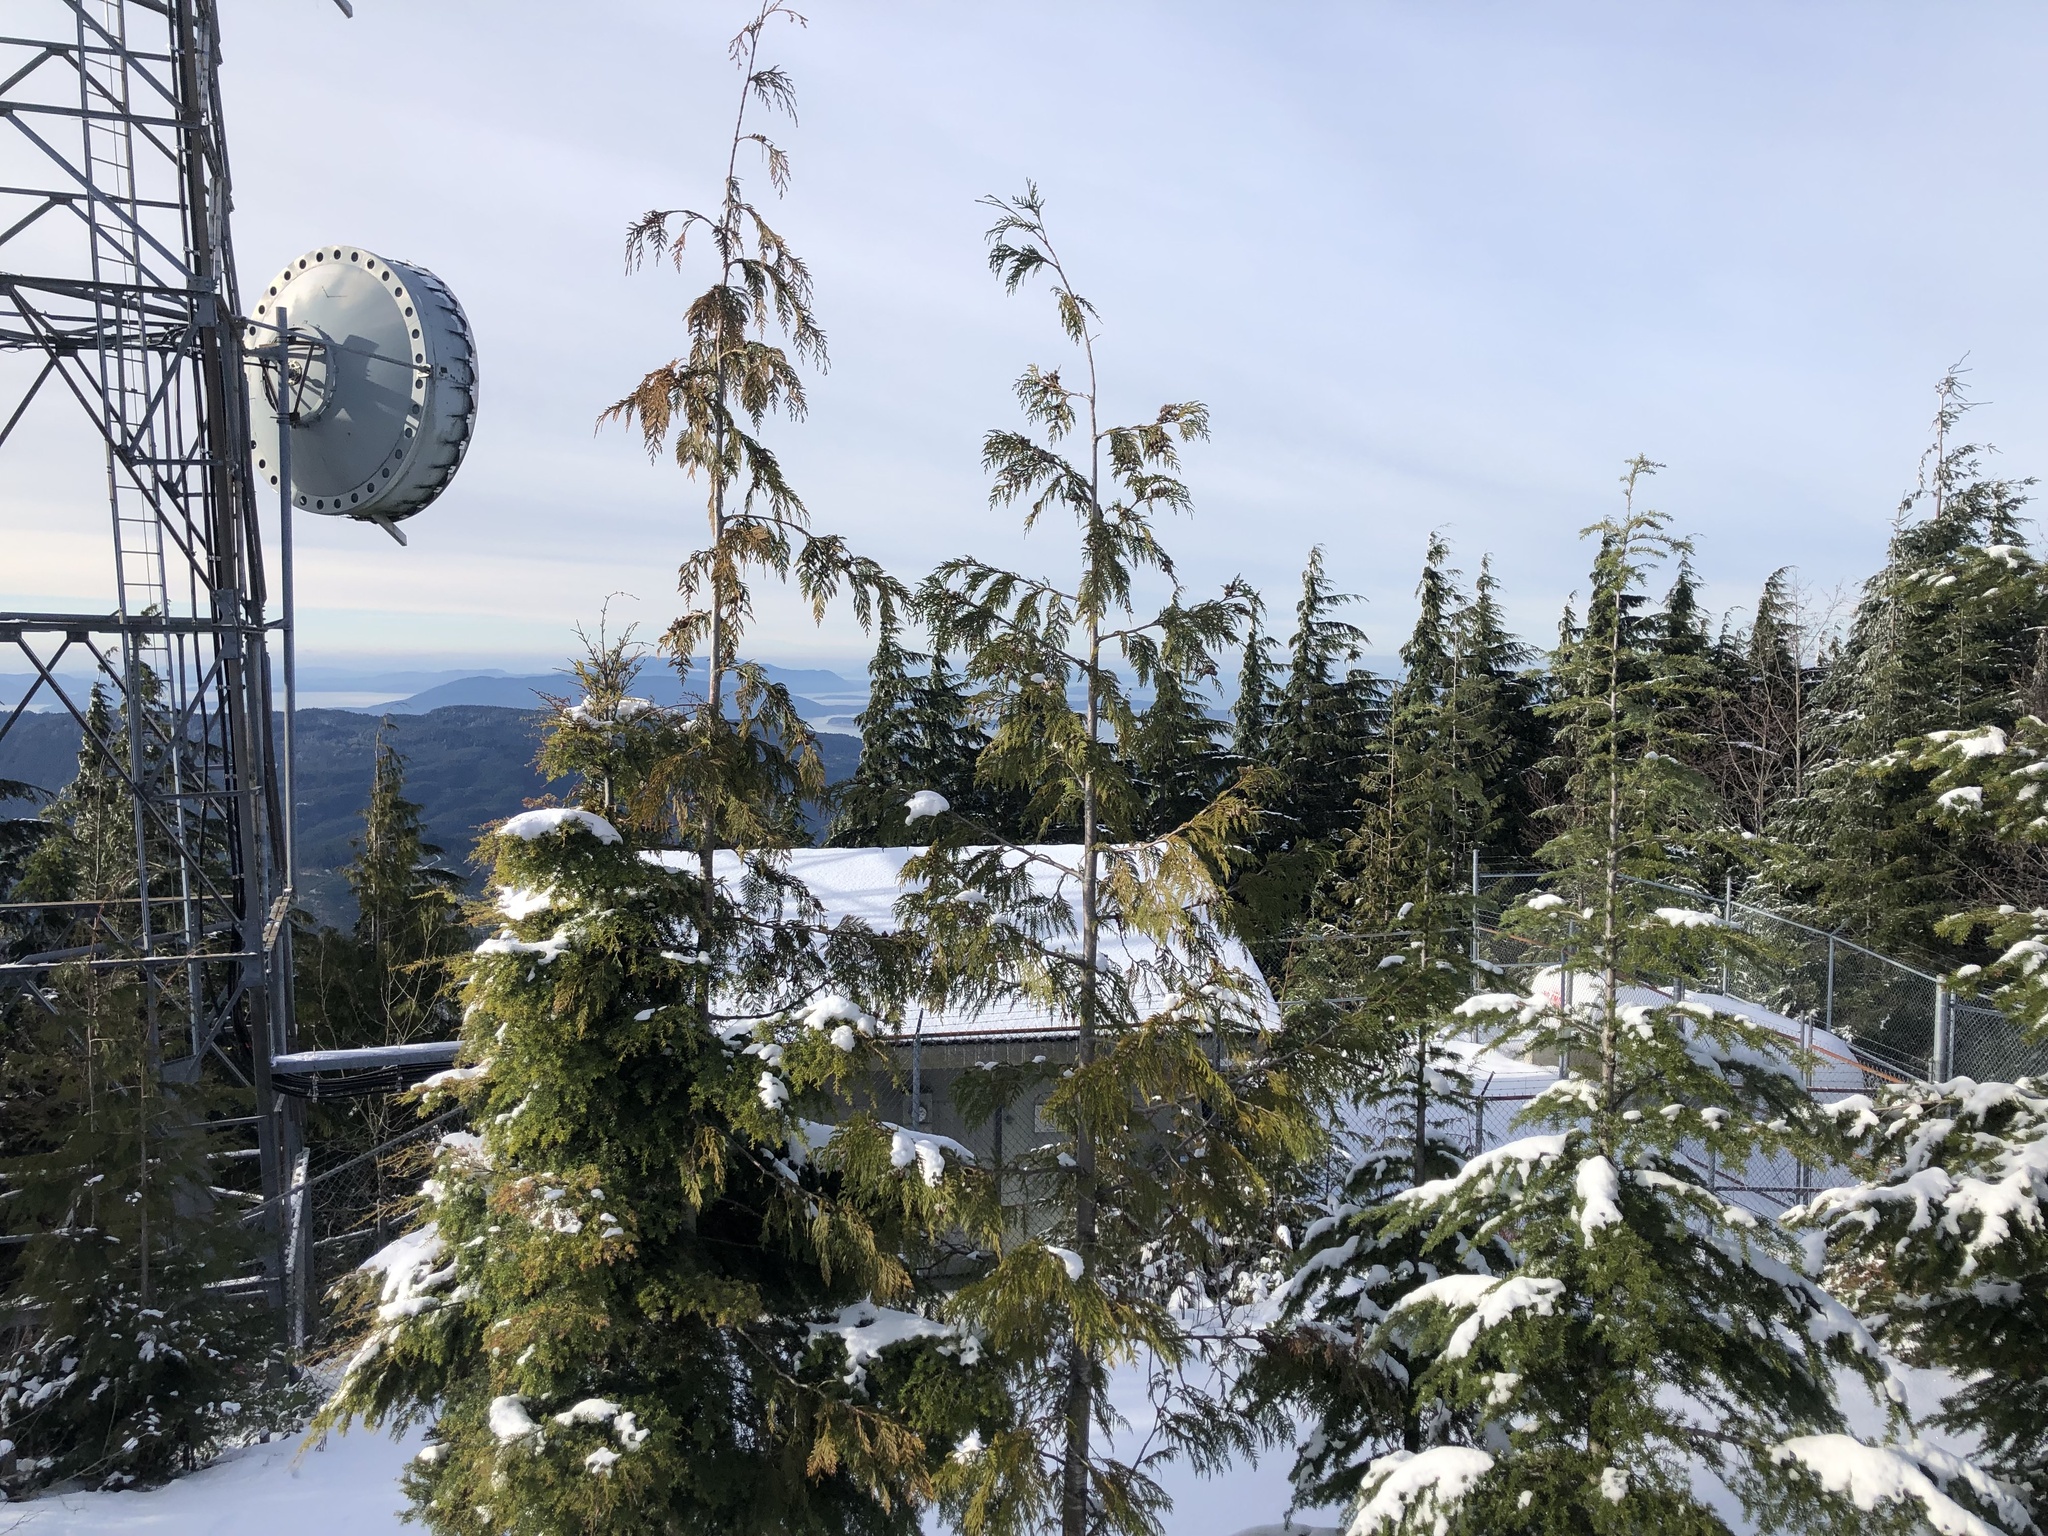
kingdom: Plantae
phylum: Tracheophyta
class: Pinopsida
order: Pinales
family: Cupressaceae
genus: Thuja
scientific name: Thuja plicata
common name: Western red-cedar
